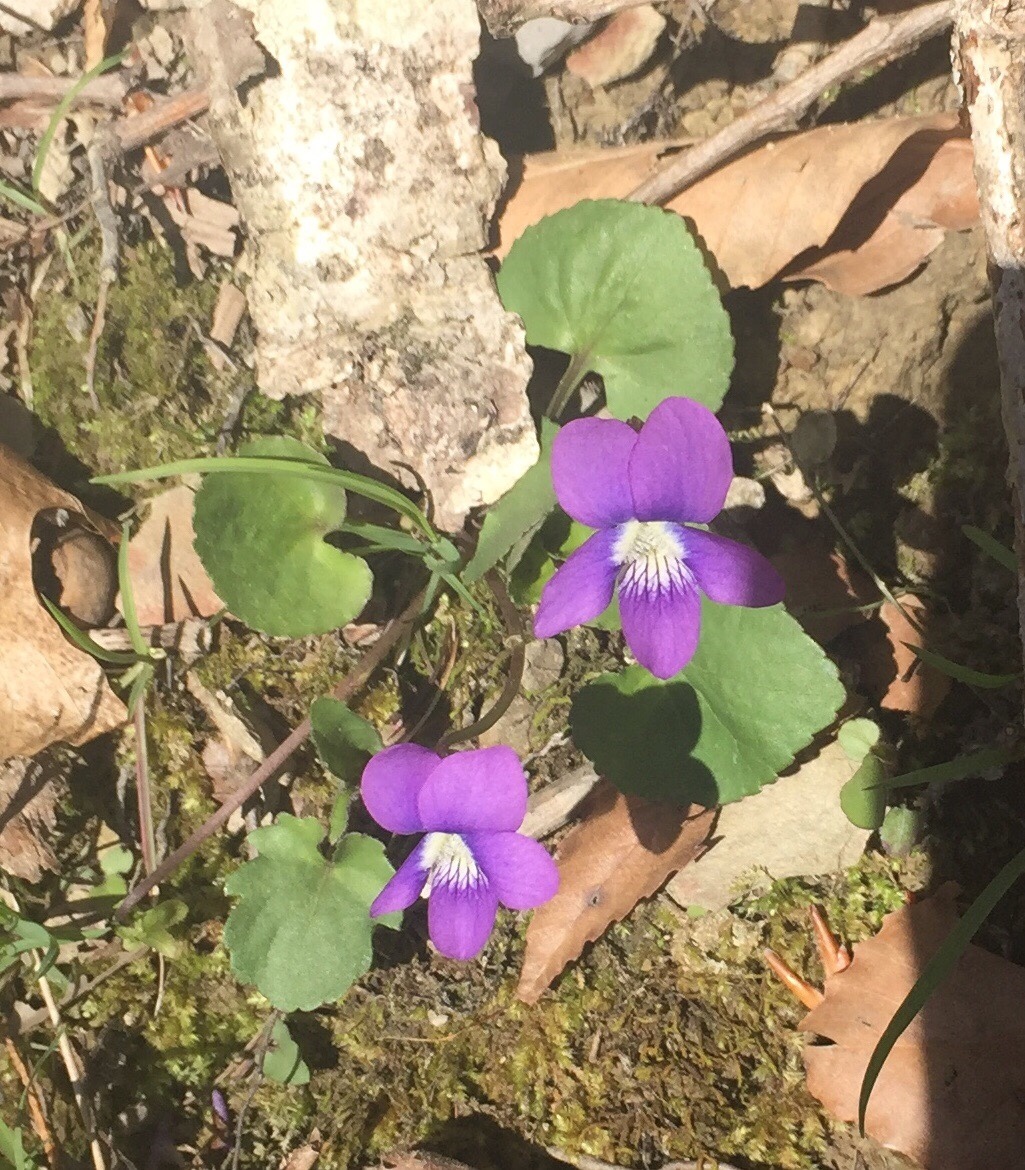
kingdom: Plantae
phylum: Tracheophyta
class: Magnoliopsida
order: Malpighiales
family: Violaceae
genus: Viola
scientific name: Viola palmata
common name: Early blue violet
